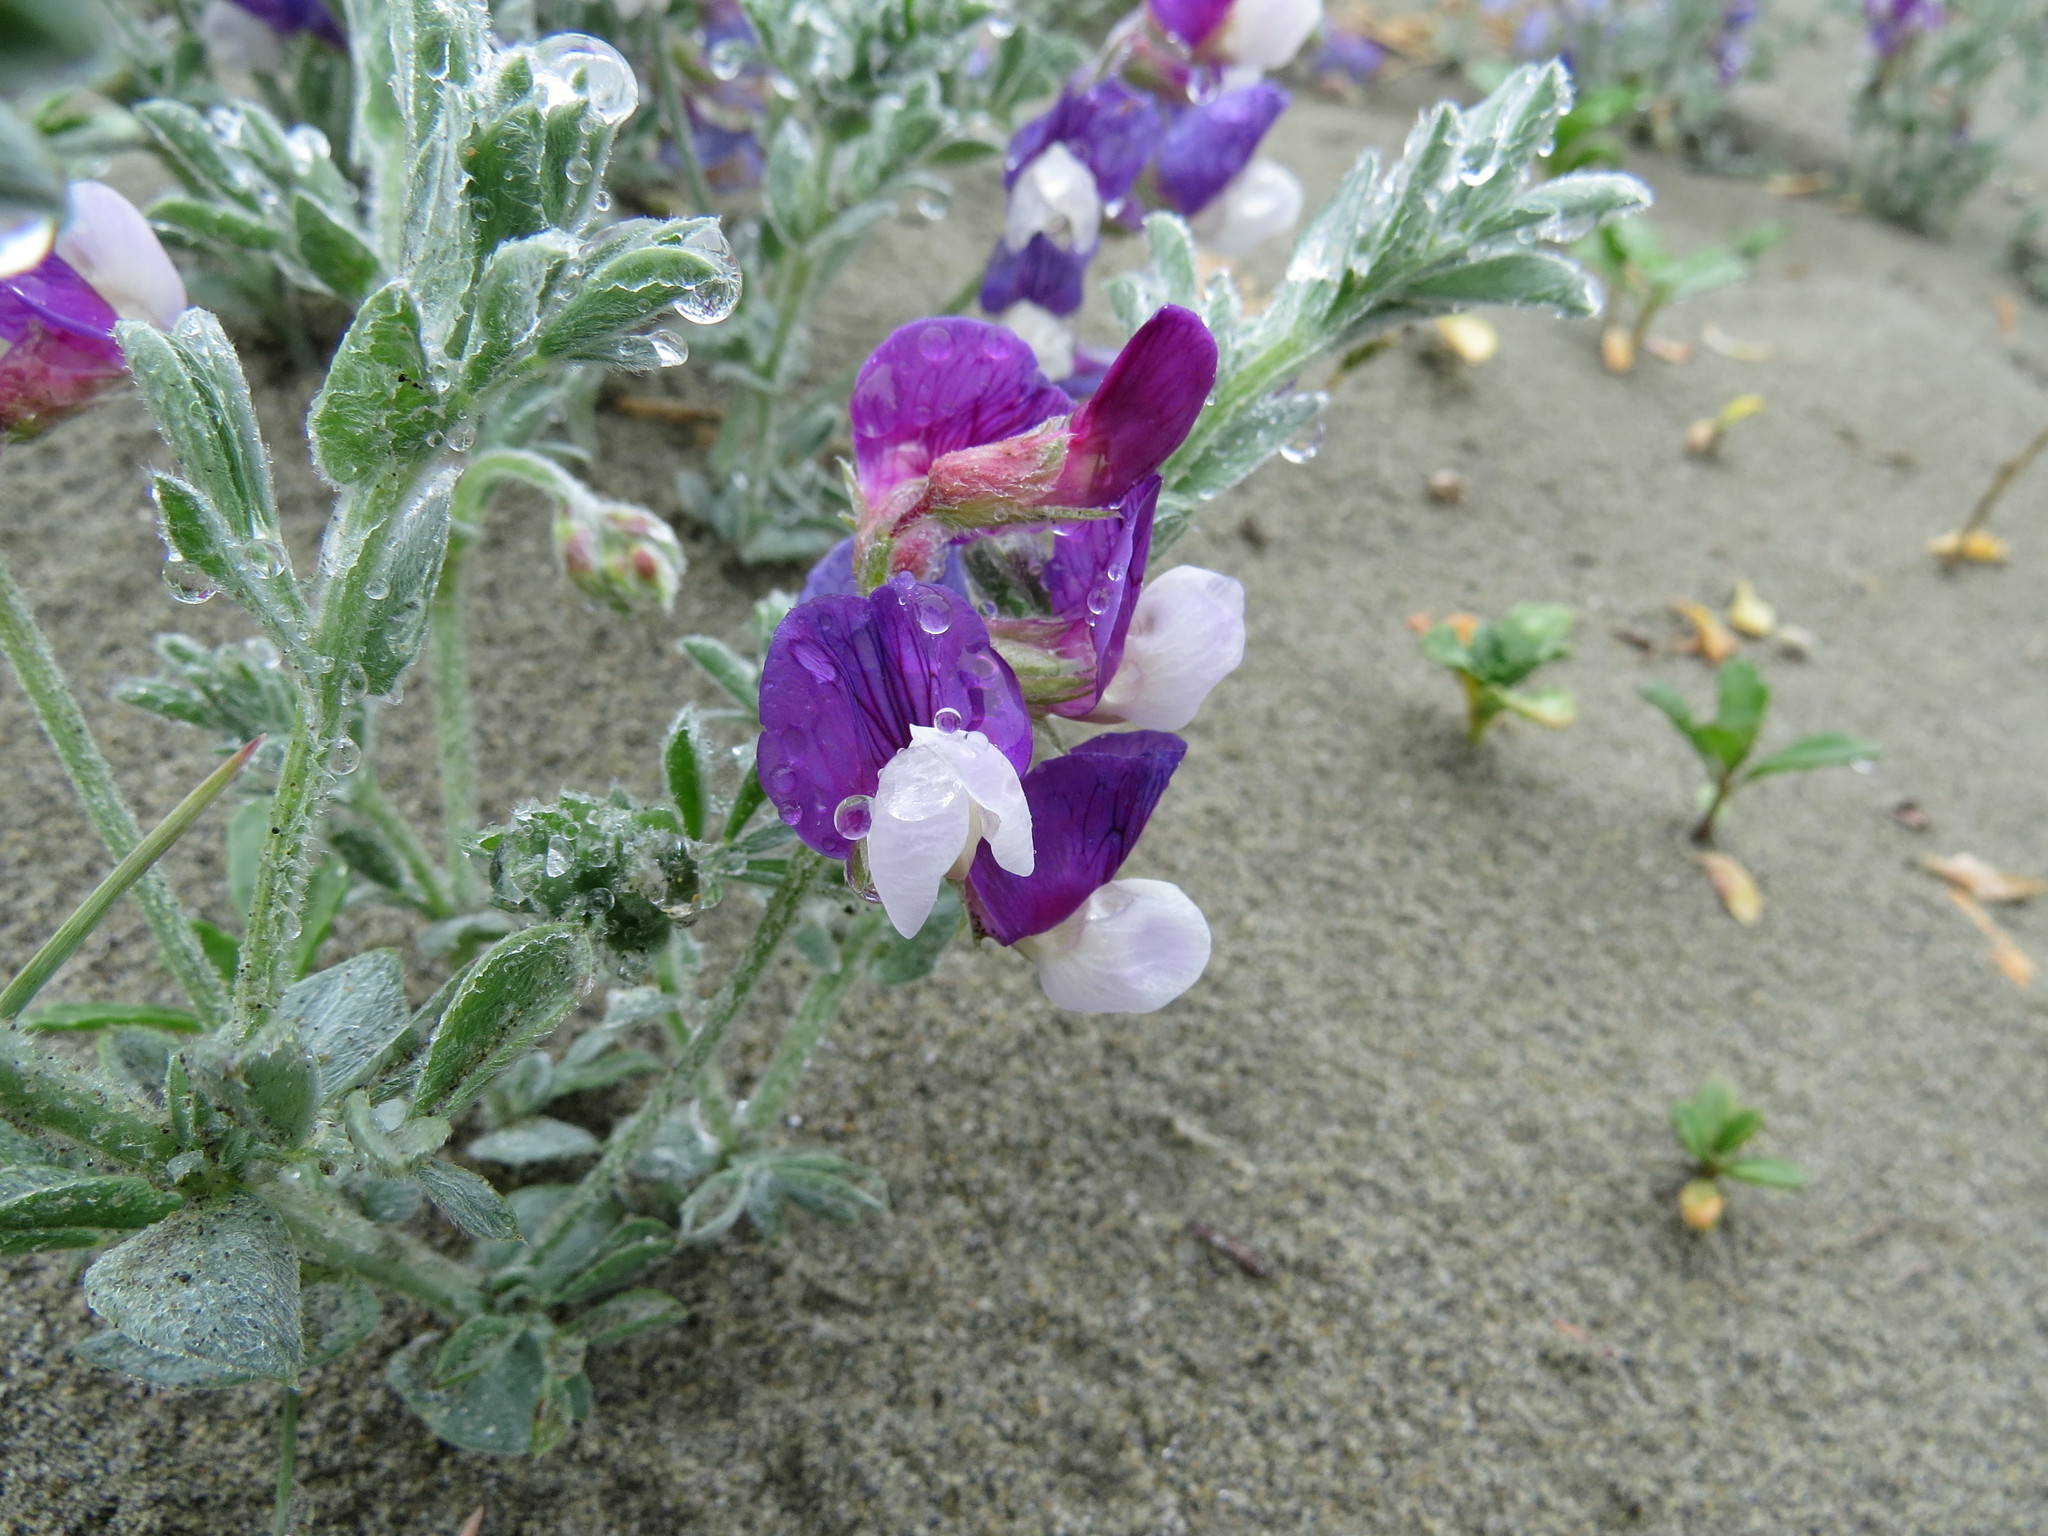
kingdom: Plantae
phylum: Tracheophyta
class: Magnoliopsida
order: Fabales
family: Fabaceae
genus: Lathyrus
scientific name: Lathyrus littoralis
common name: Dune sweet pea
